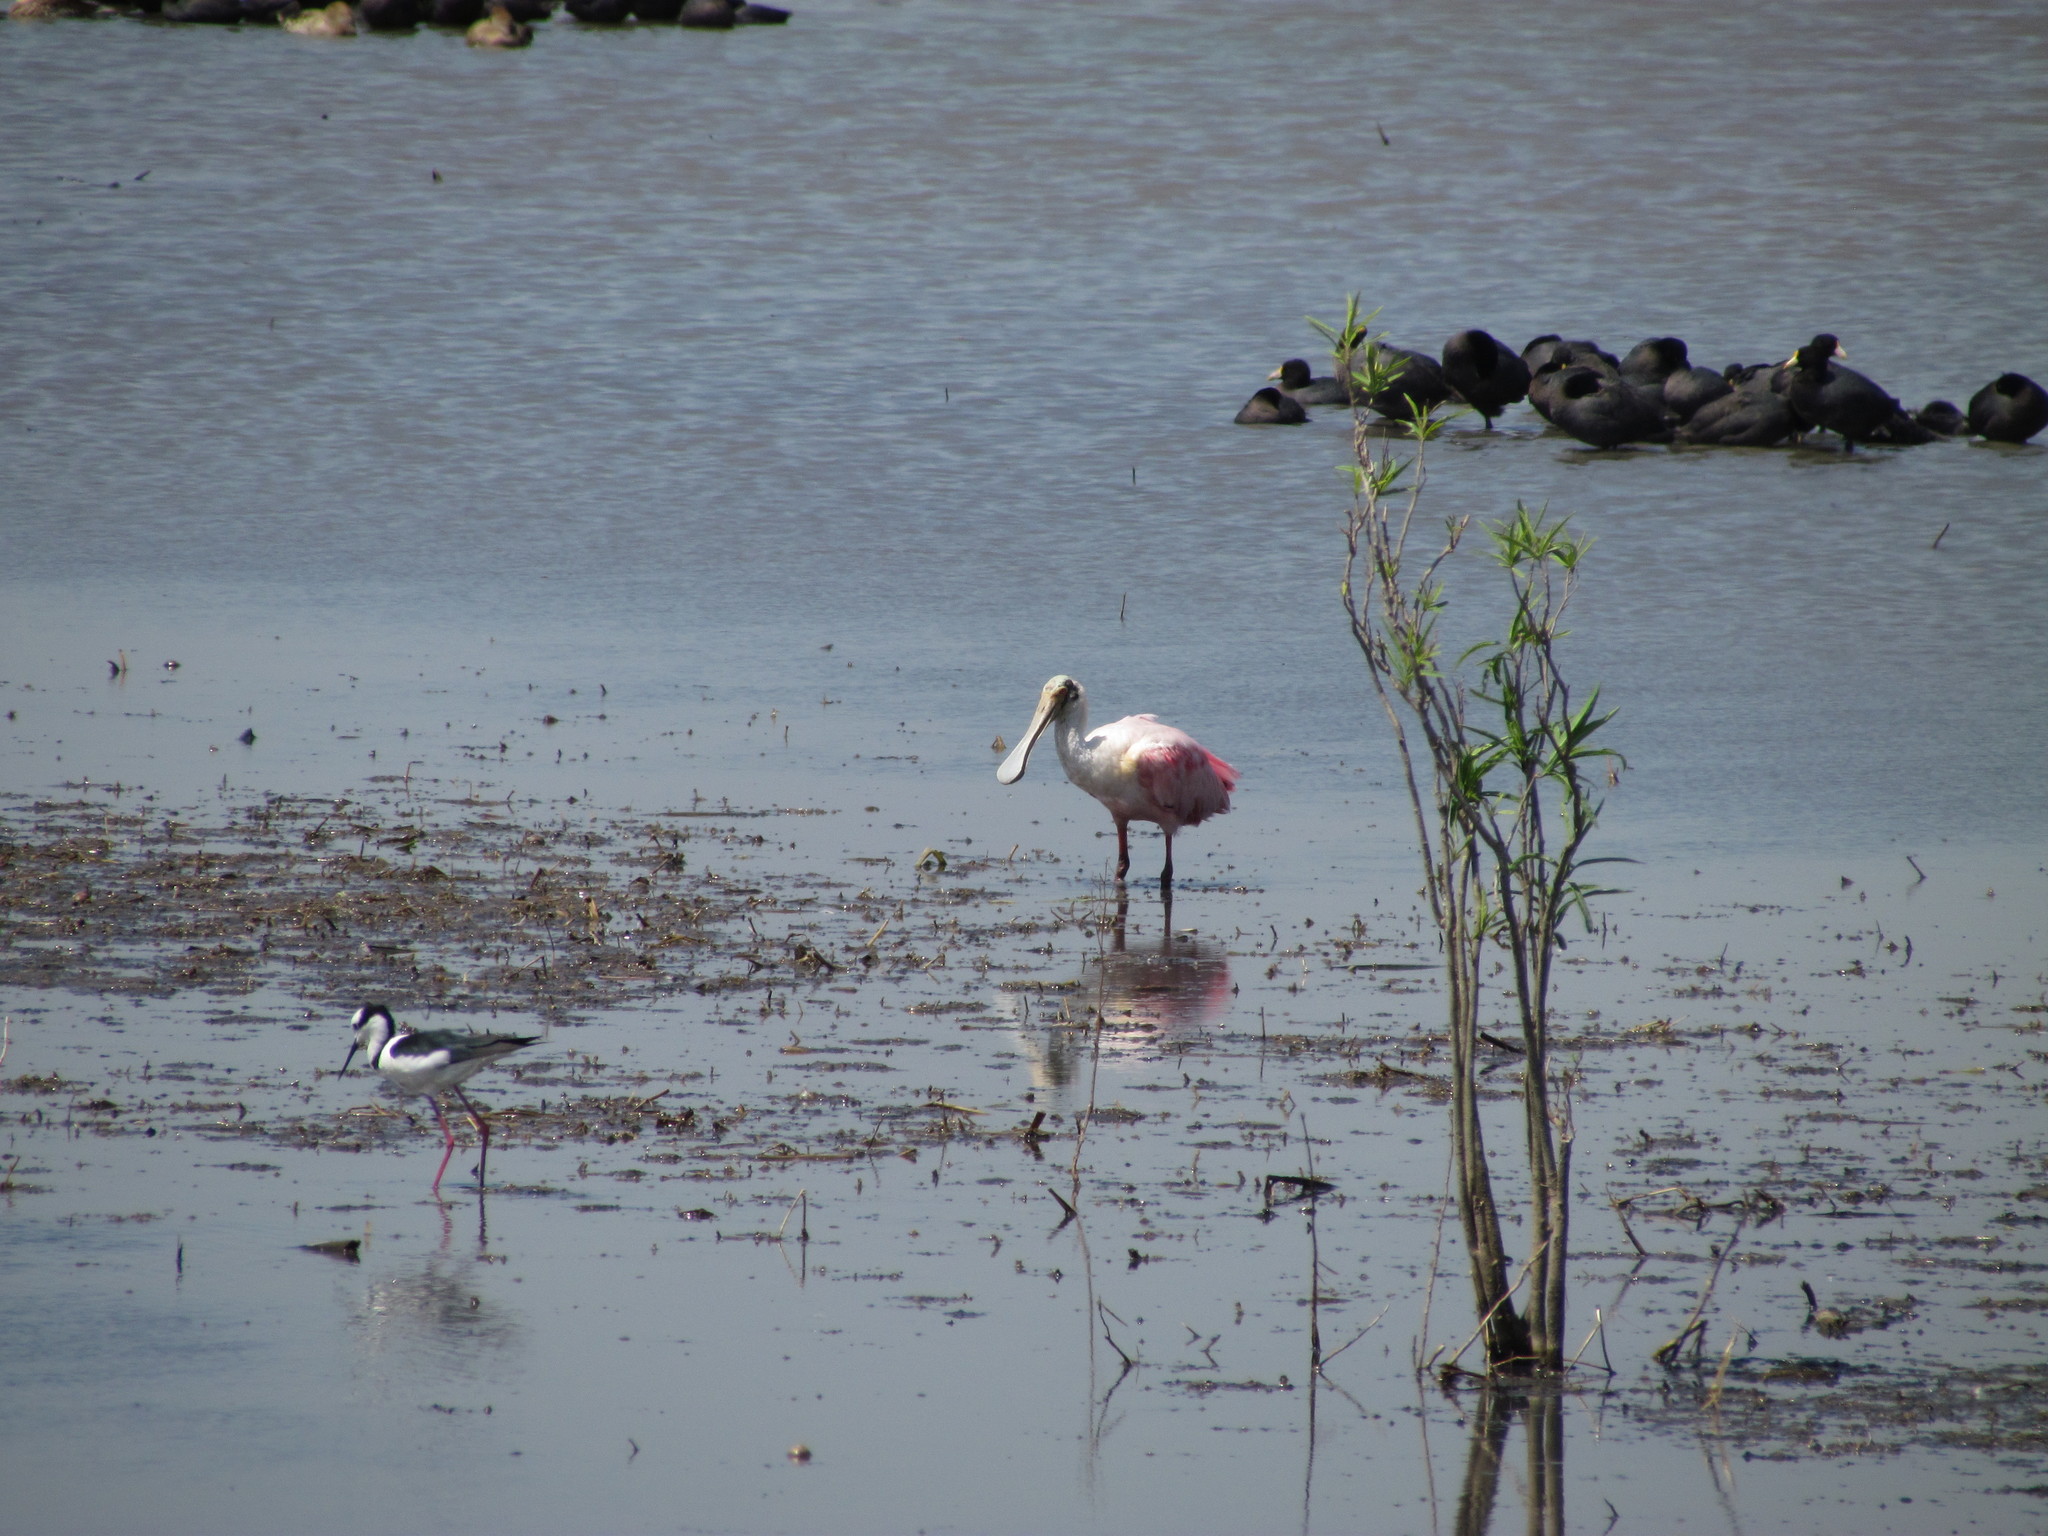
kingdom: Animalia
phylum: Chordata
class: Aves
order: Pelecaniformes
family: Threskiornithidae
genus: Platalea
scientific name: Platalea ajaja
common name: Roseate spoonbill
